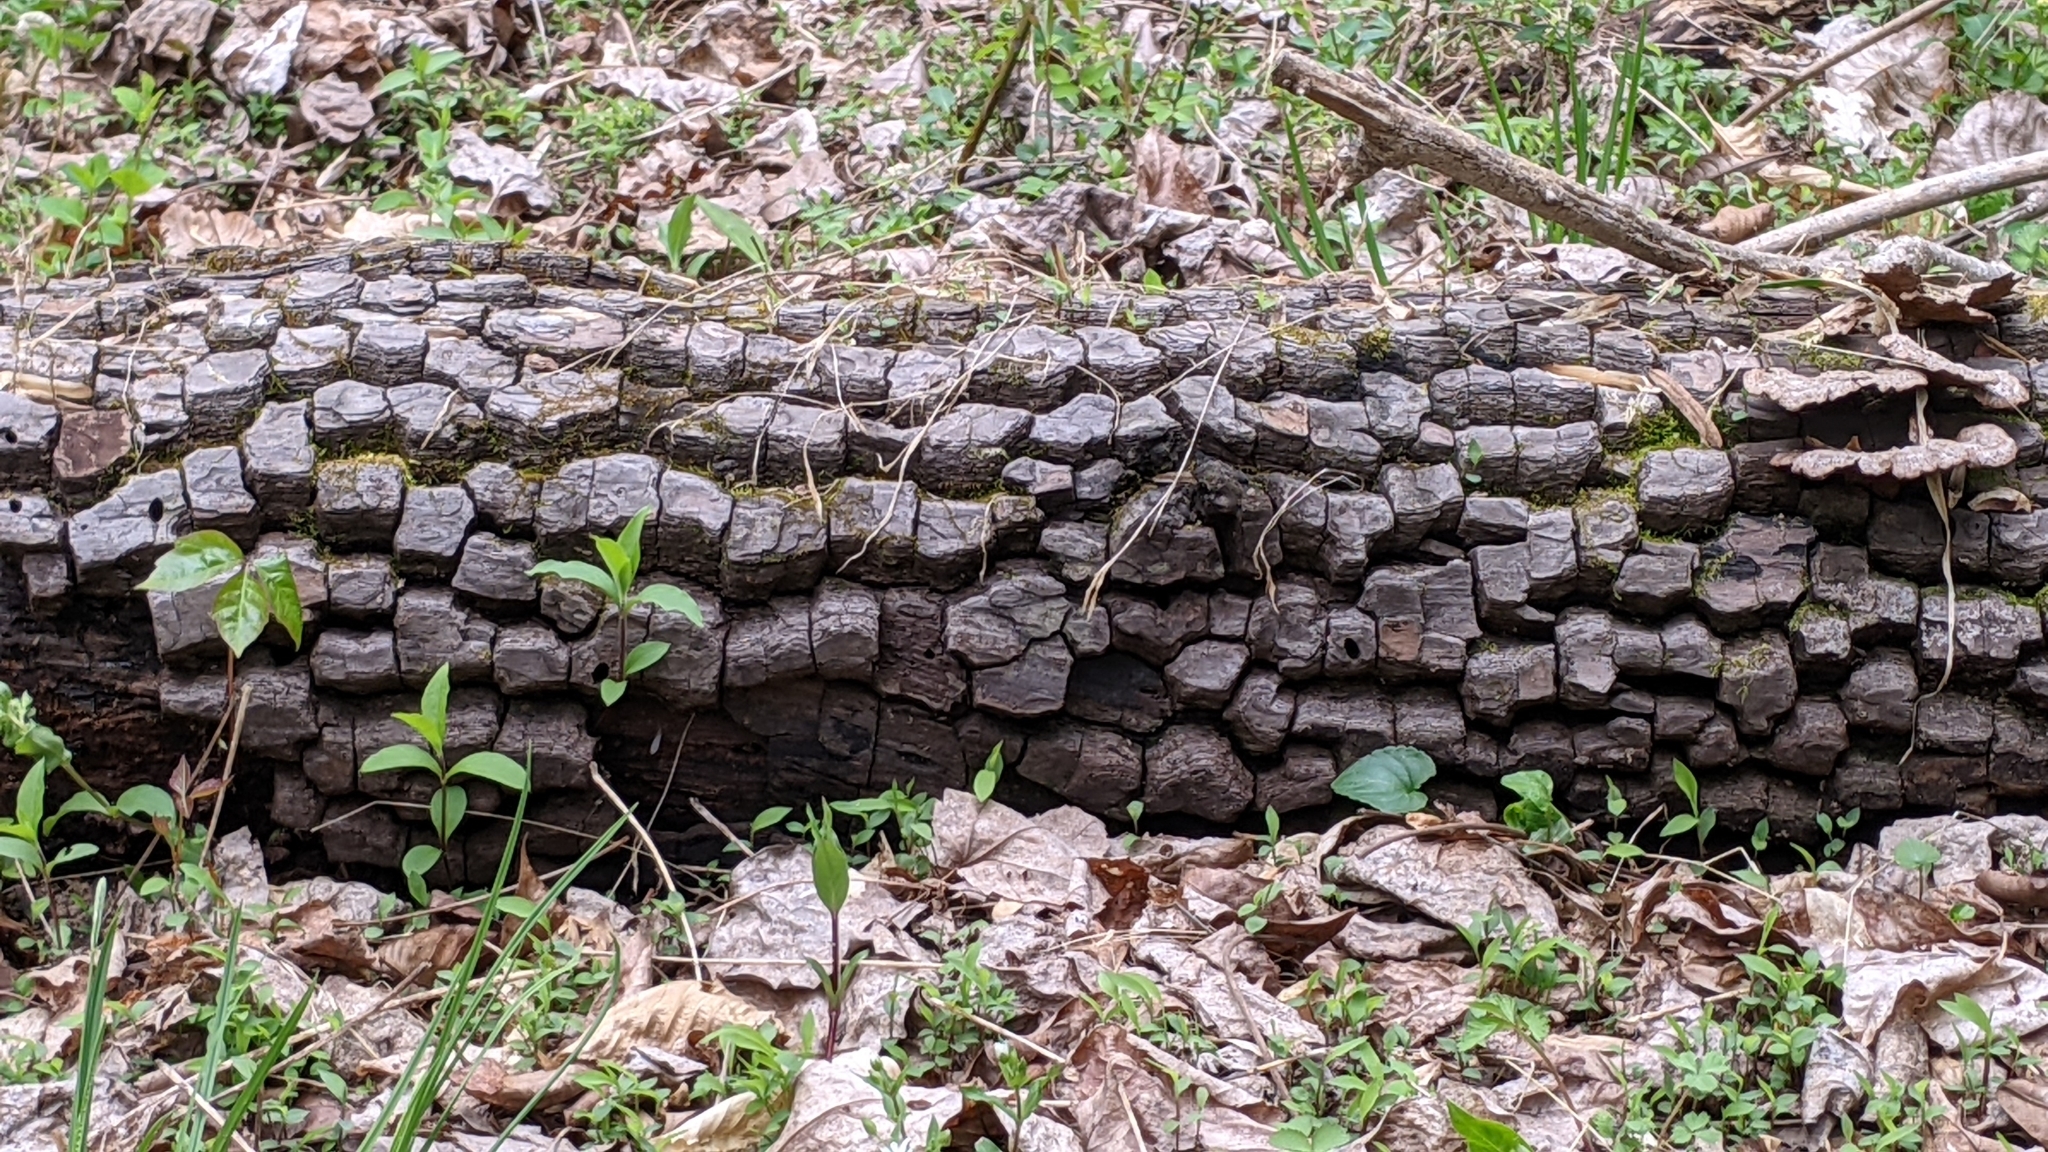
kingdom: Plantae
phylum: Tracheophyta
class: Magnoliopsida
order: Ericales
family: Ebenaceae
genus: Diospyros
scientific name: Diospyros virginiana
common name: Persimmon
